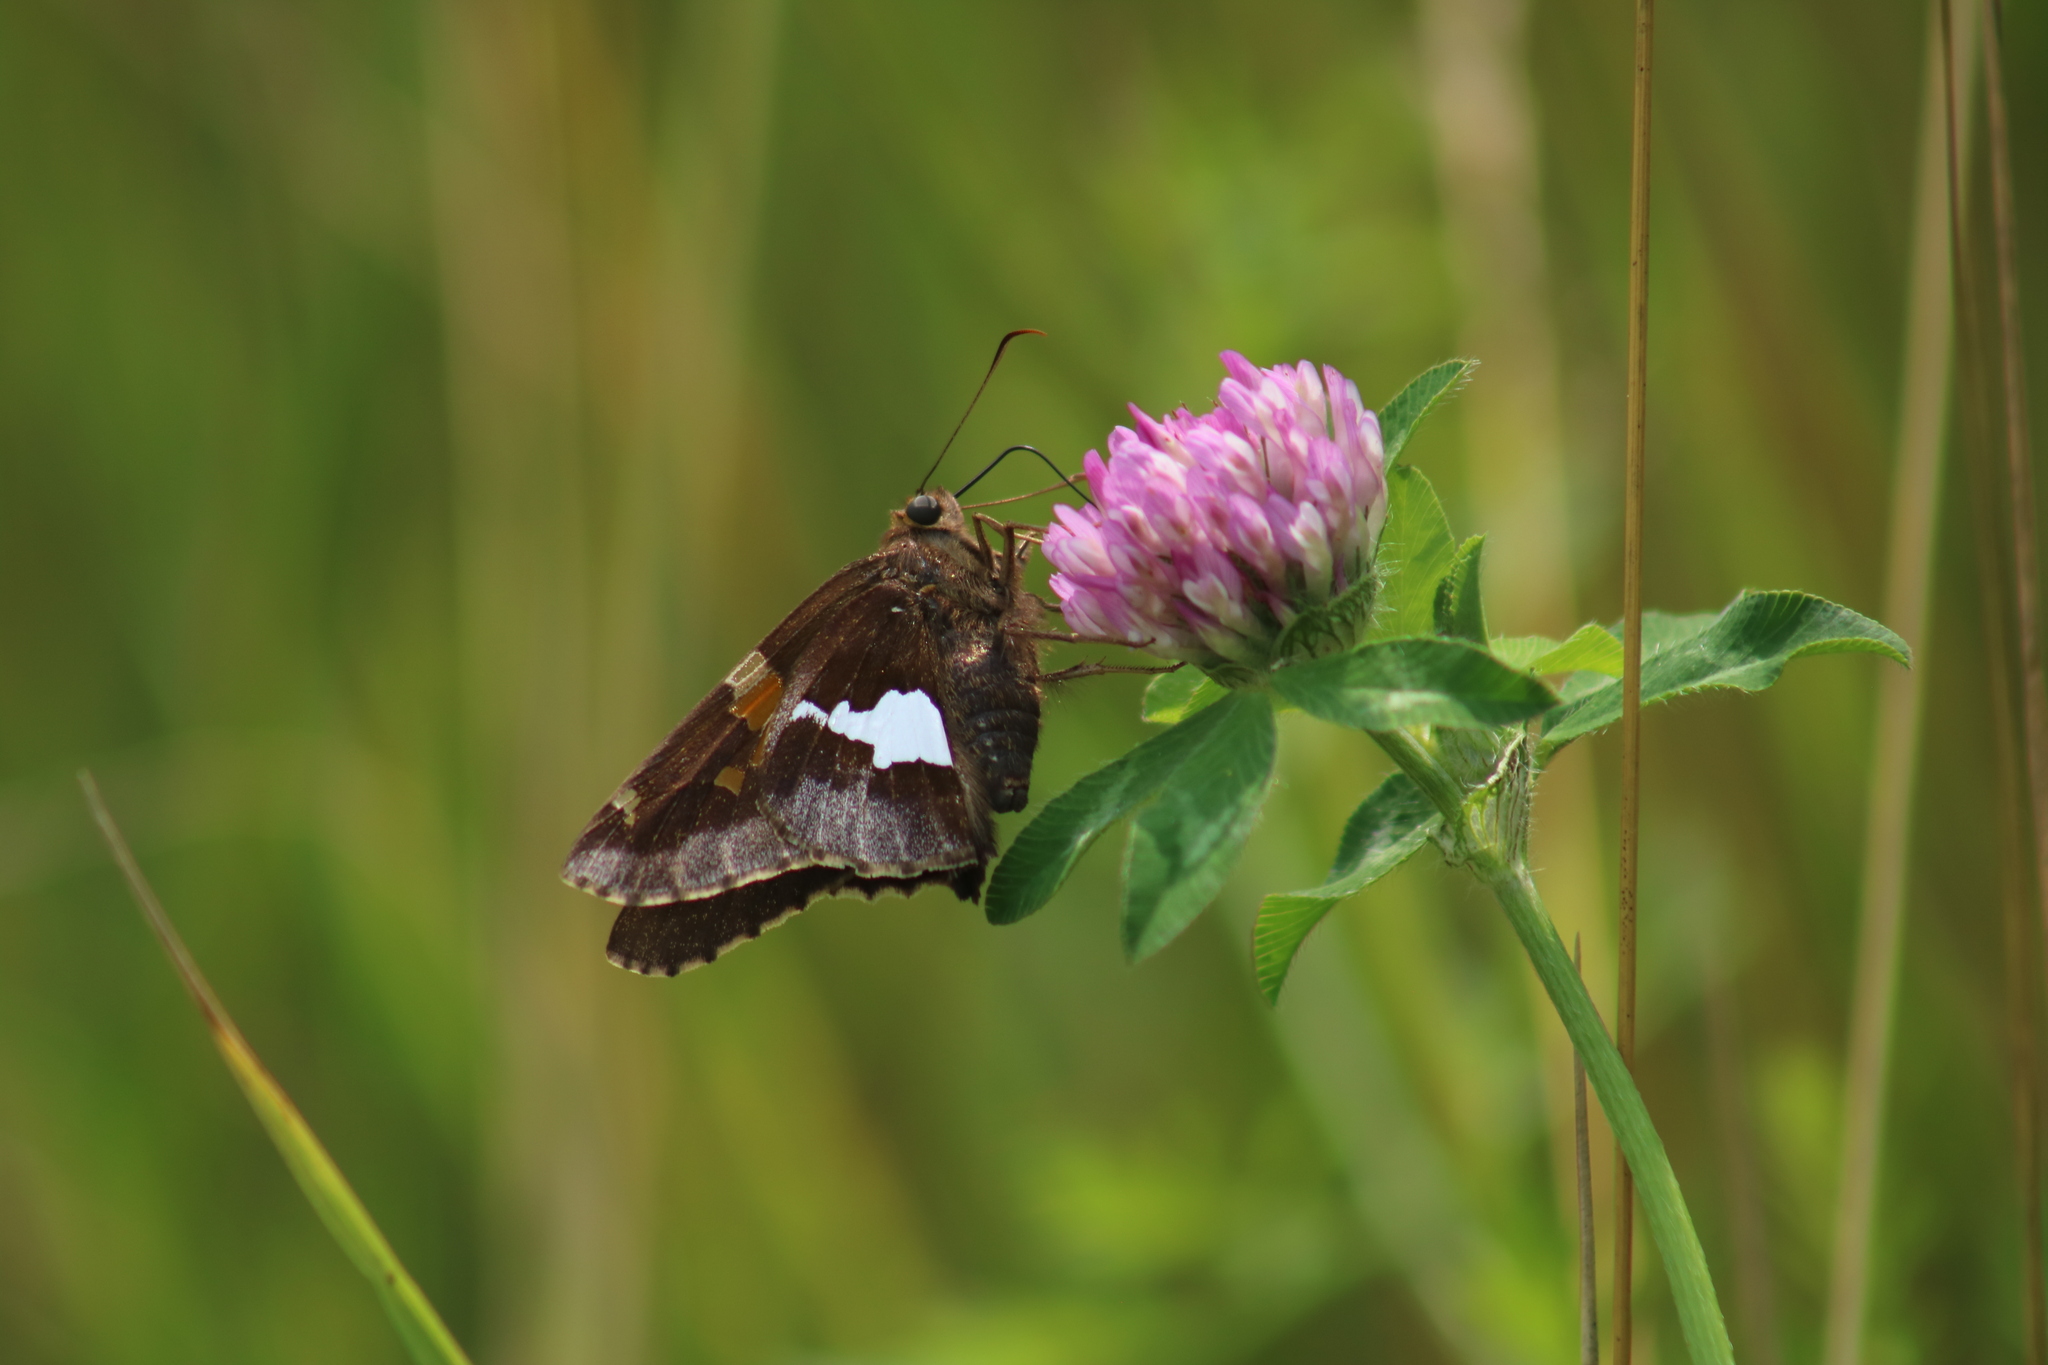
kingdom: Animalia
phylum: Arthropoda
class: Insecta
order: Lepidoptera
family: Hesperiidae
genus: Epargyreus
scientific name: Epargyreus clarus
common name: Silver-spotted skipper
